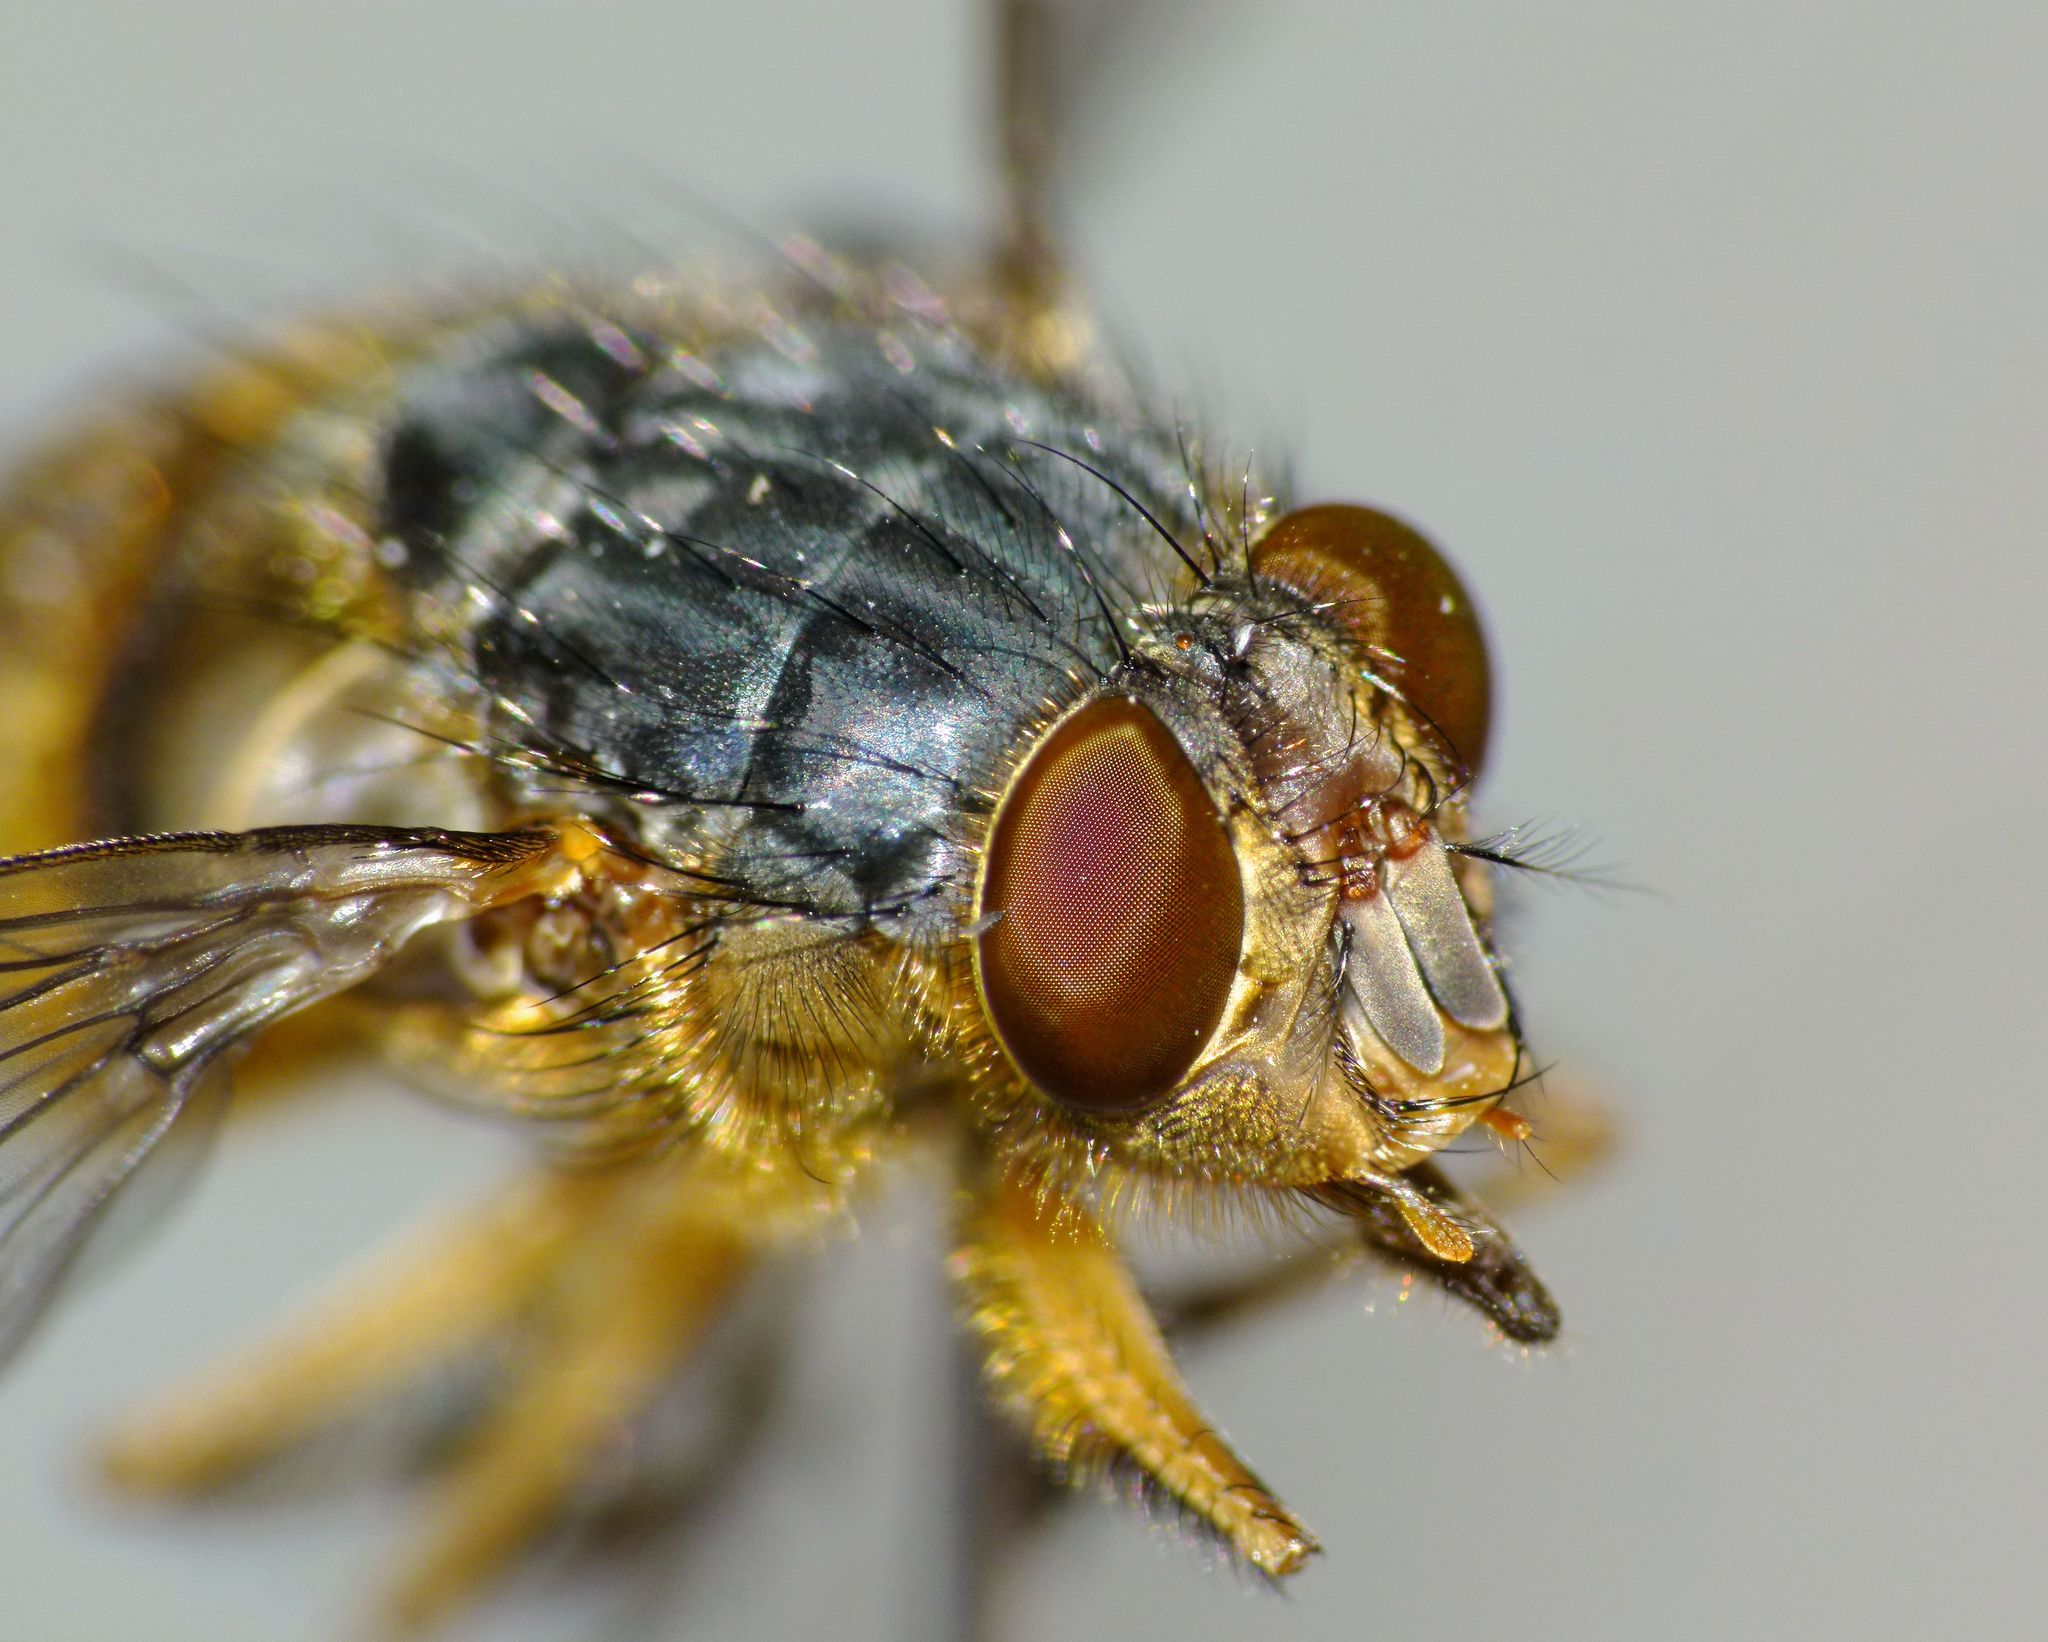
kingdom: Animalia
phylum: Arthropoda
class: Insecta
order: Diptera
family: Calliphoridae
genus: Calliphora
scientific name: Calliphora hilli
